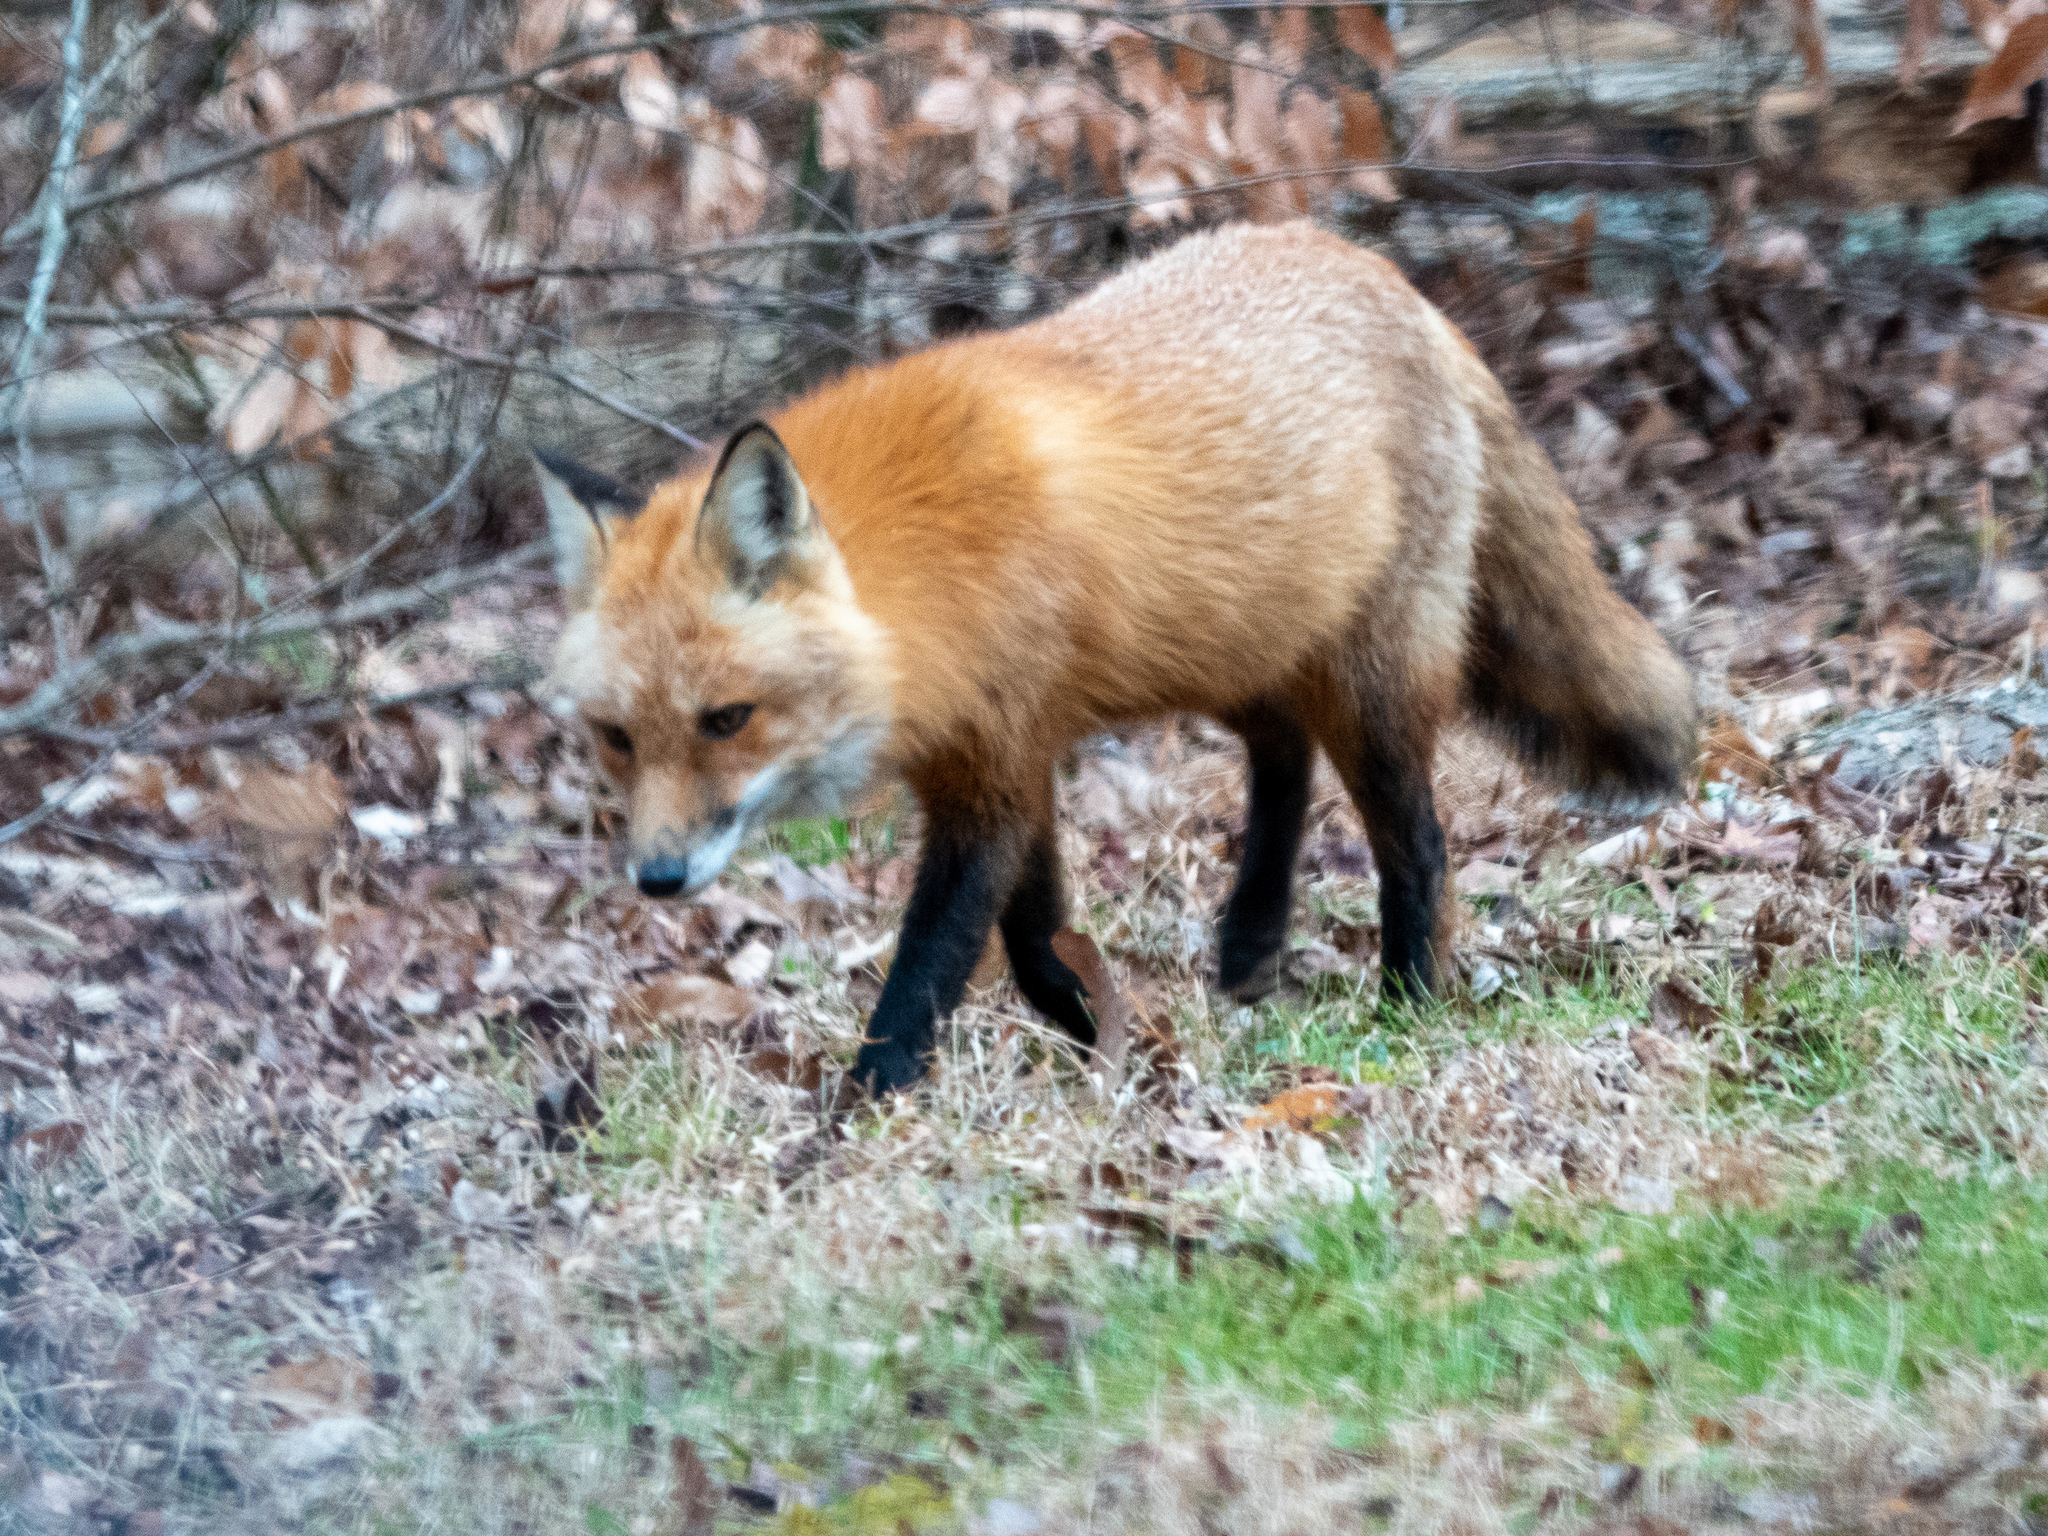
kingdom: Animalia
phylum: Chordata
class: Mammalia
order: Carnivora
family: Canidae
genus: Vulpes
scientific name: Vulpes vulpes
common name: Red fox
